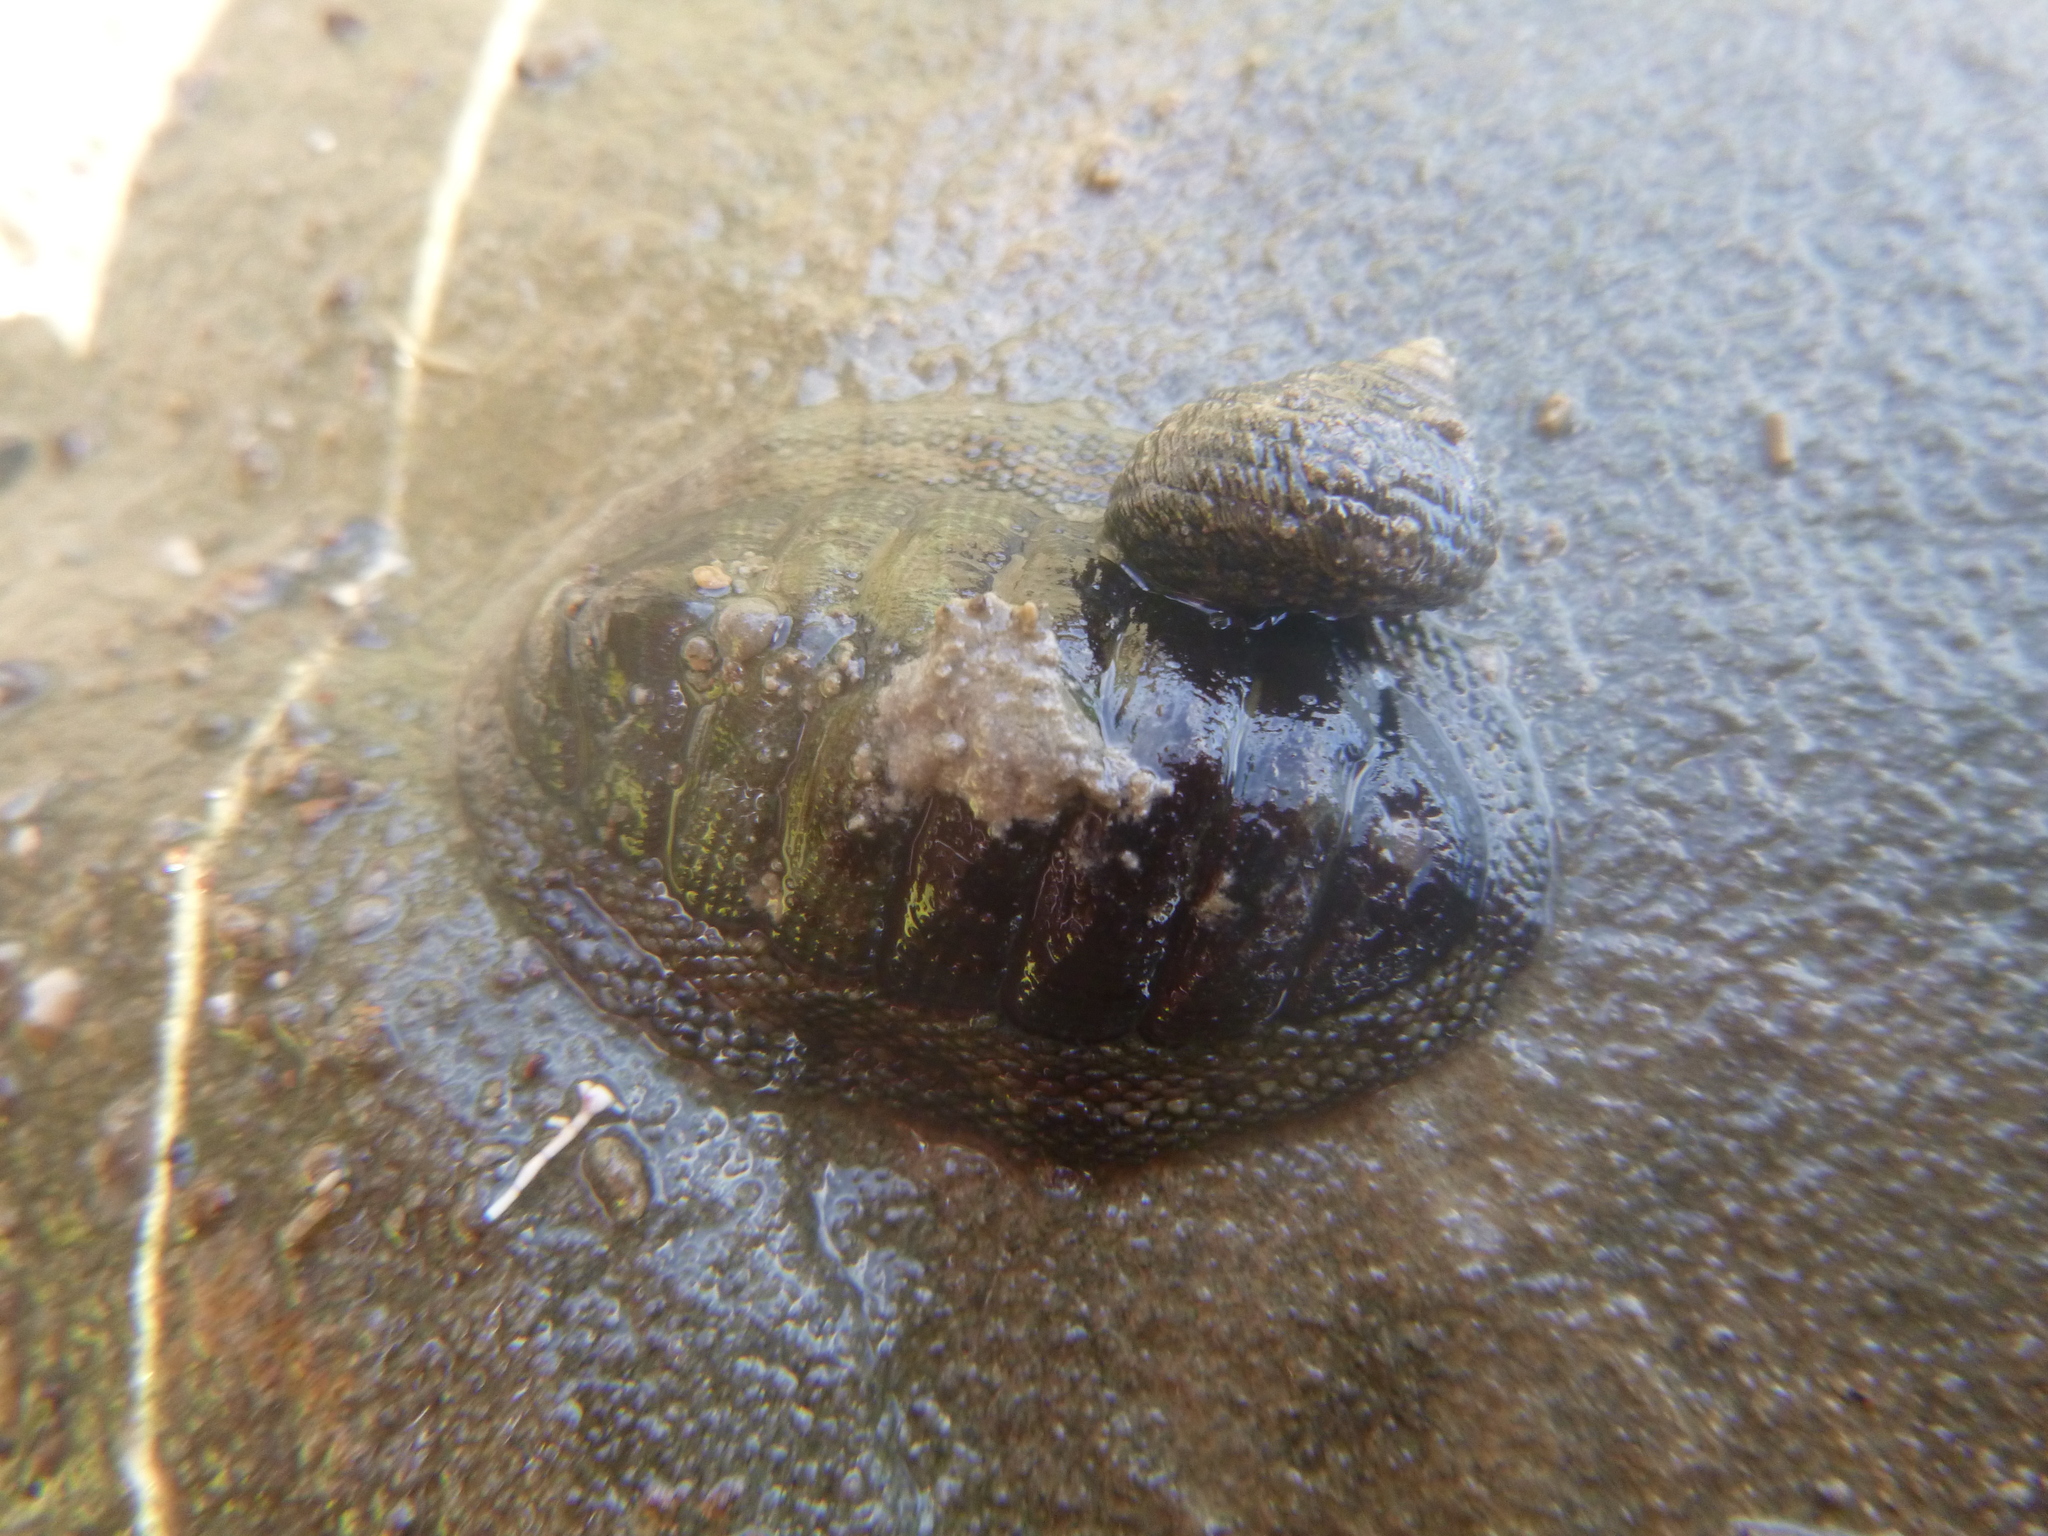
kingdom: Animalia
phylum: Mollusca
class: Polyplacophora
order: Chitonida
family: Chitonidae
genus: Sypharochiton
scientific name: Sypharochiton pelliserpentis
